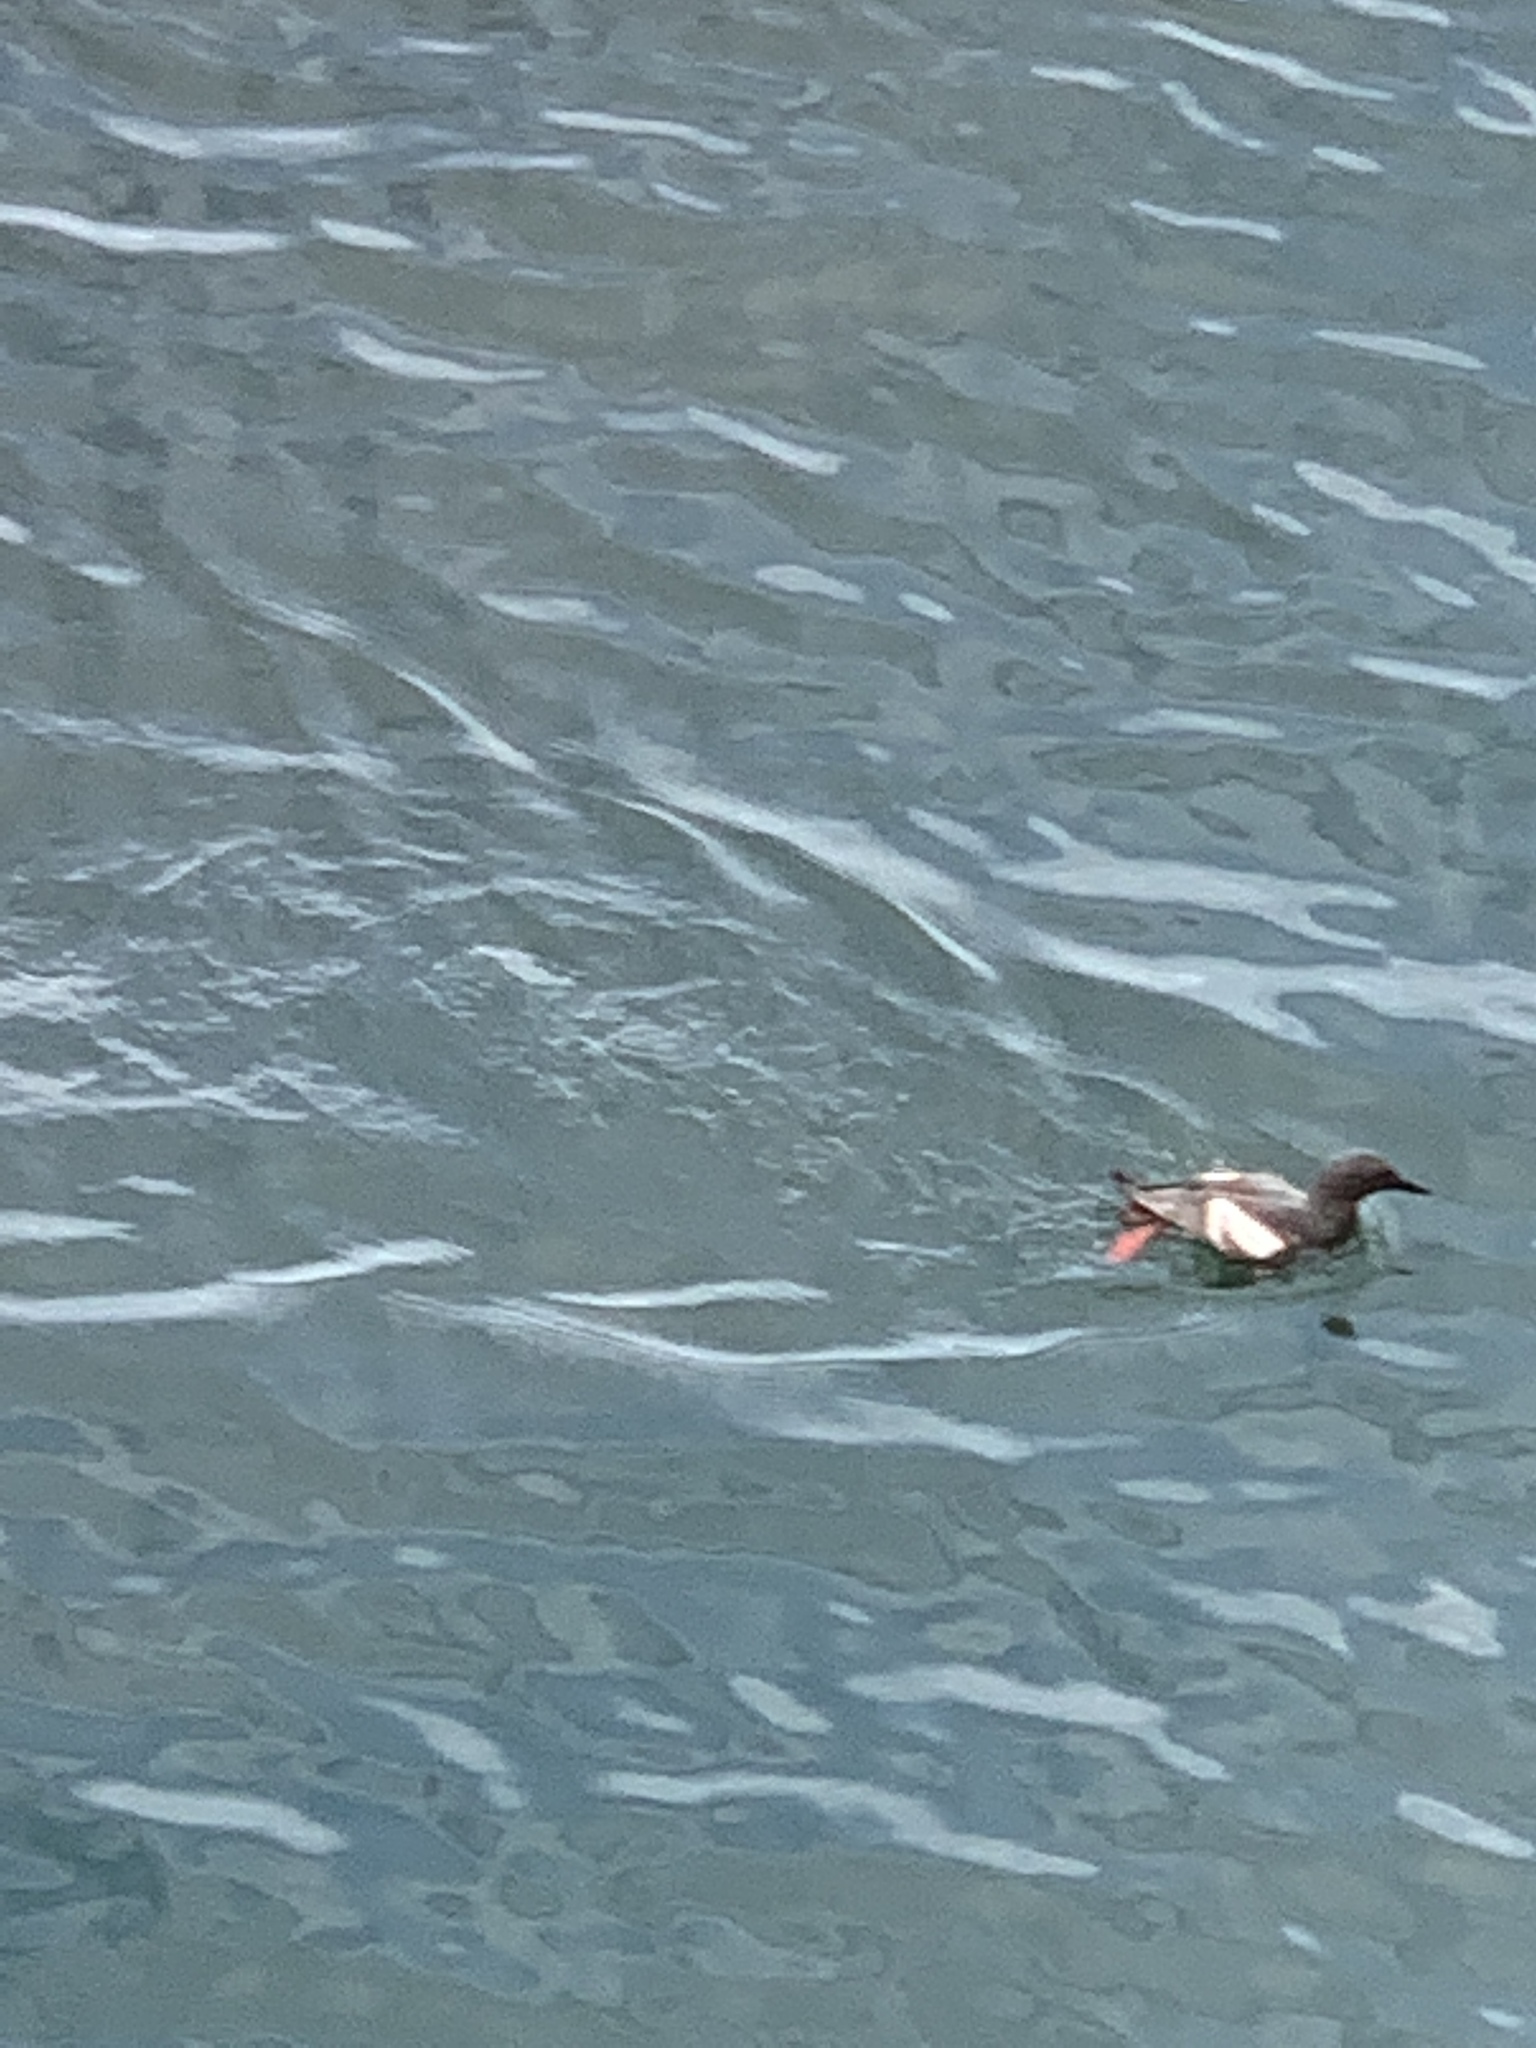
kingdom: Animalia
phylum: Chordata
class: Aves
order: Charadriiformes
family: Alcidae
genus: Cepphus
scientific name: Cepphus columba
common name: Pigeon guillemot
